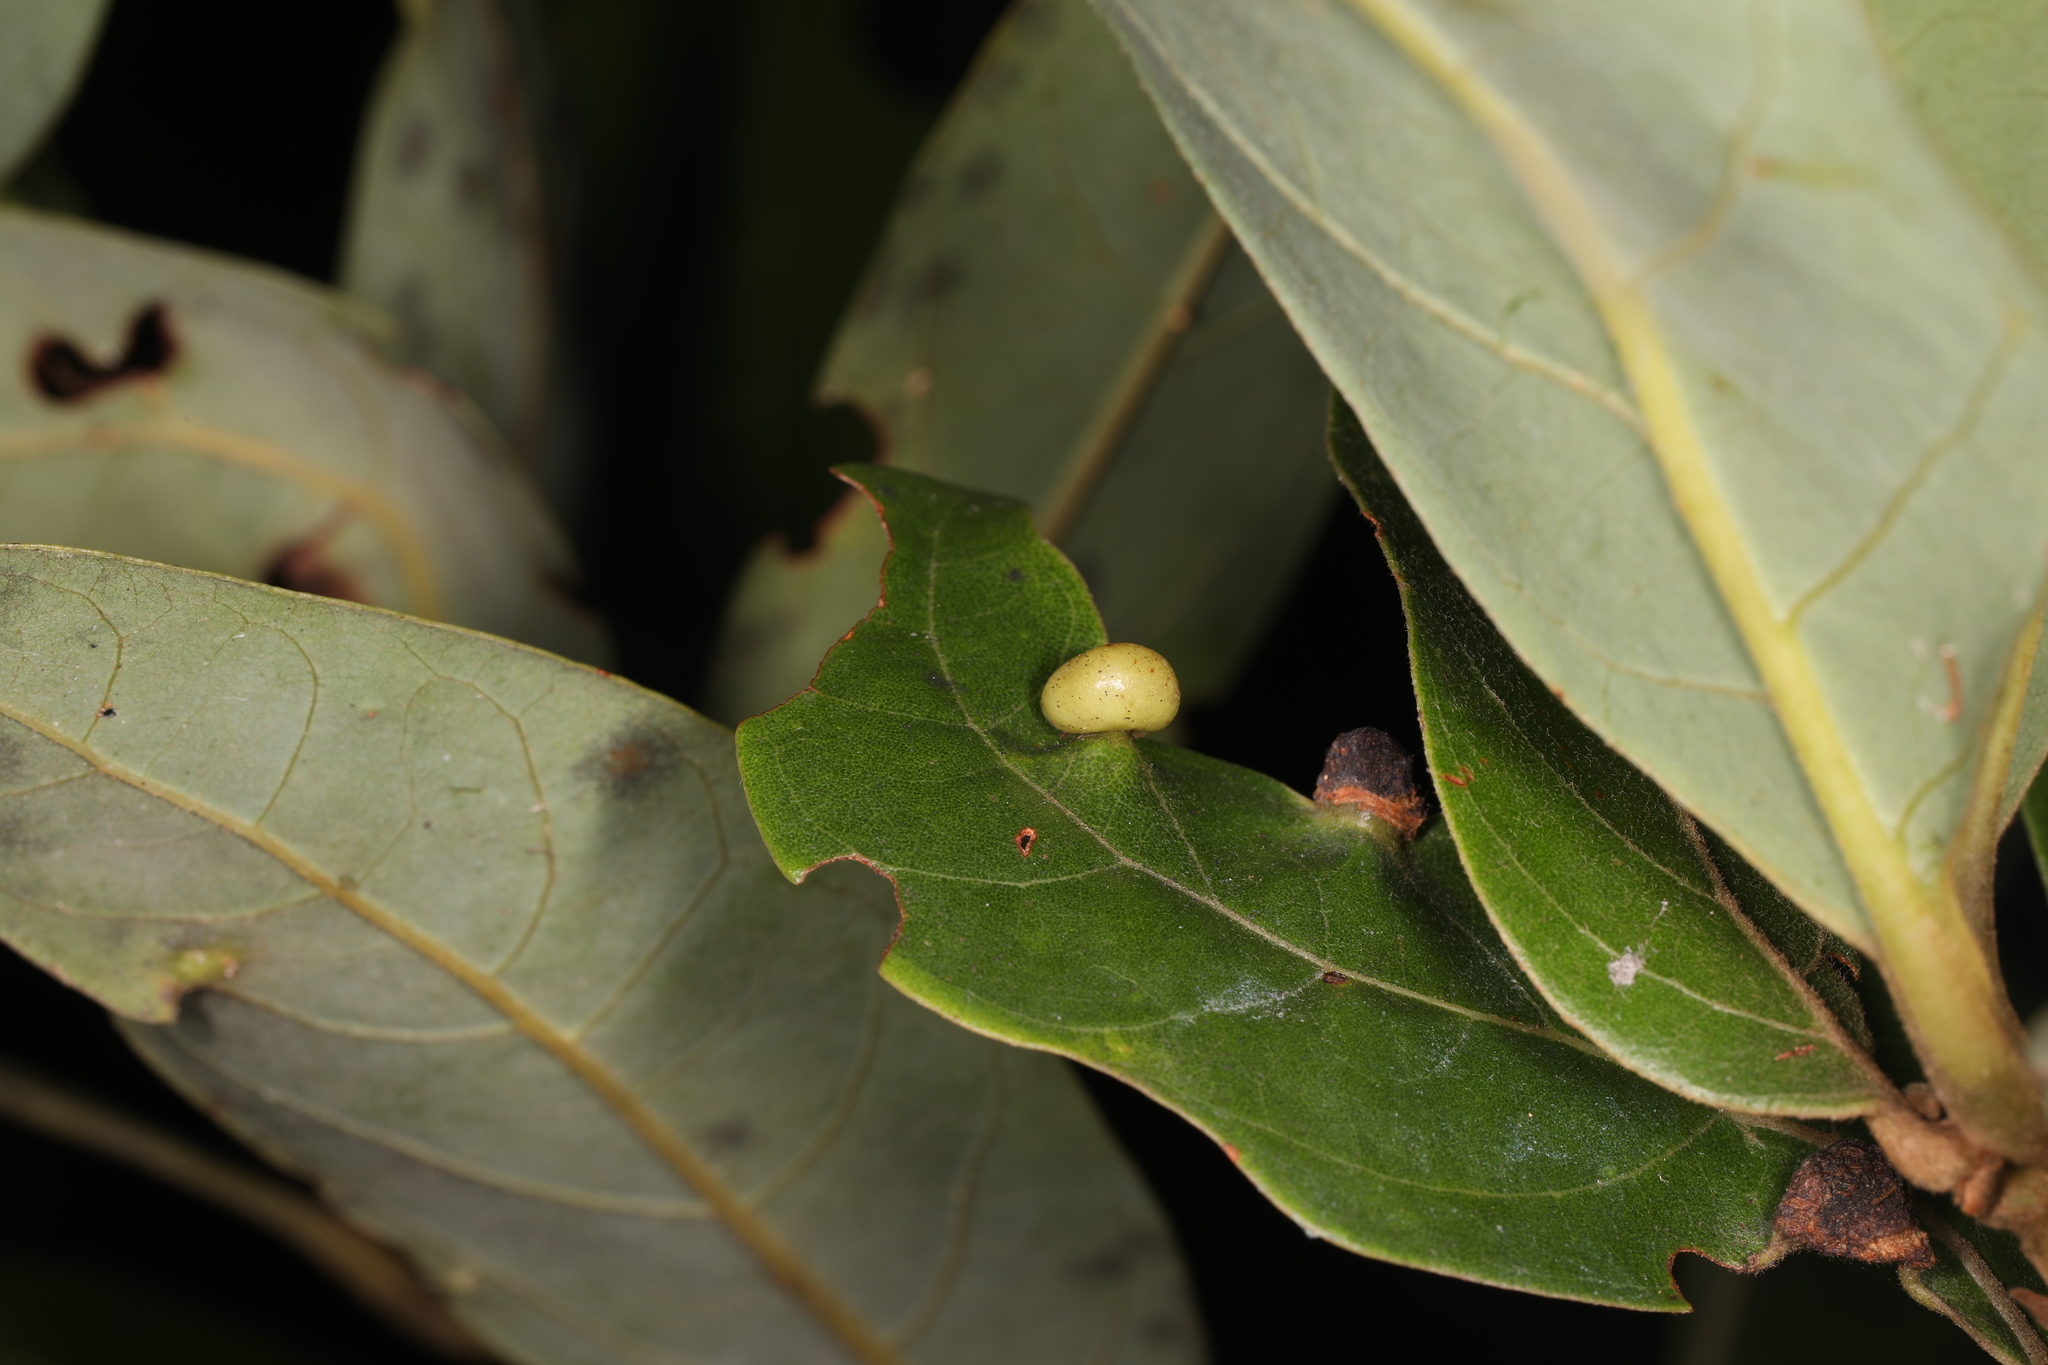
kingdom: Animalia
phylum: Arthropoda
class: Insecta
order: Hemiptera
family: Triozidae
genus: Trioza
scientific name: Trioza magnoliae
